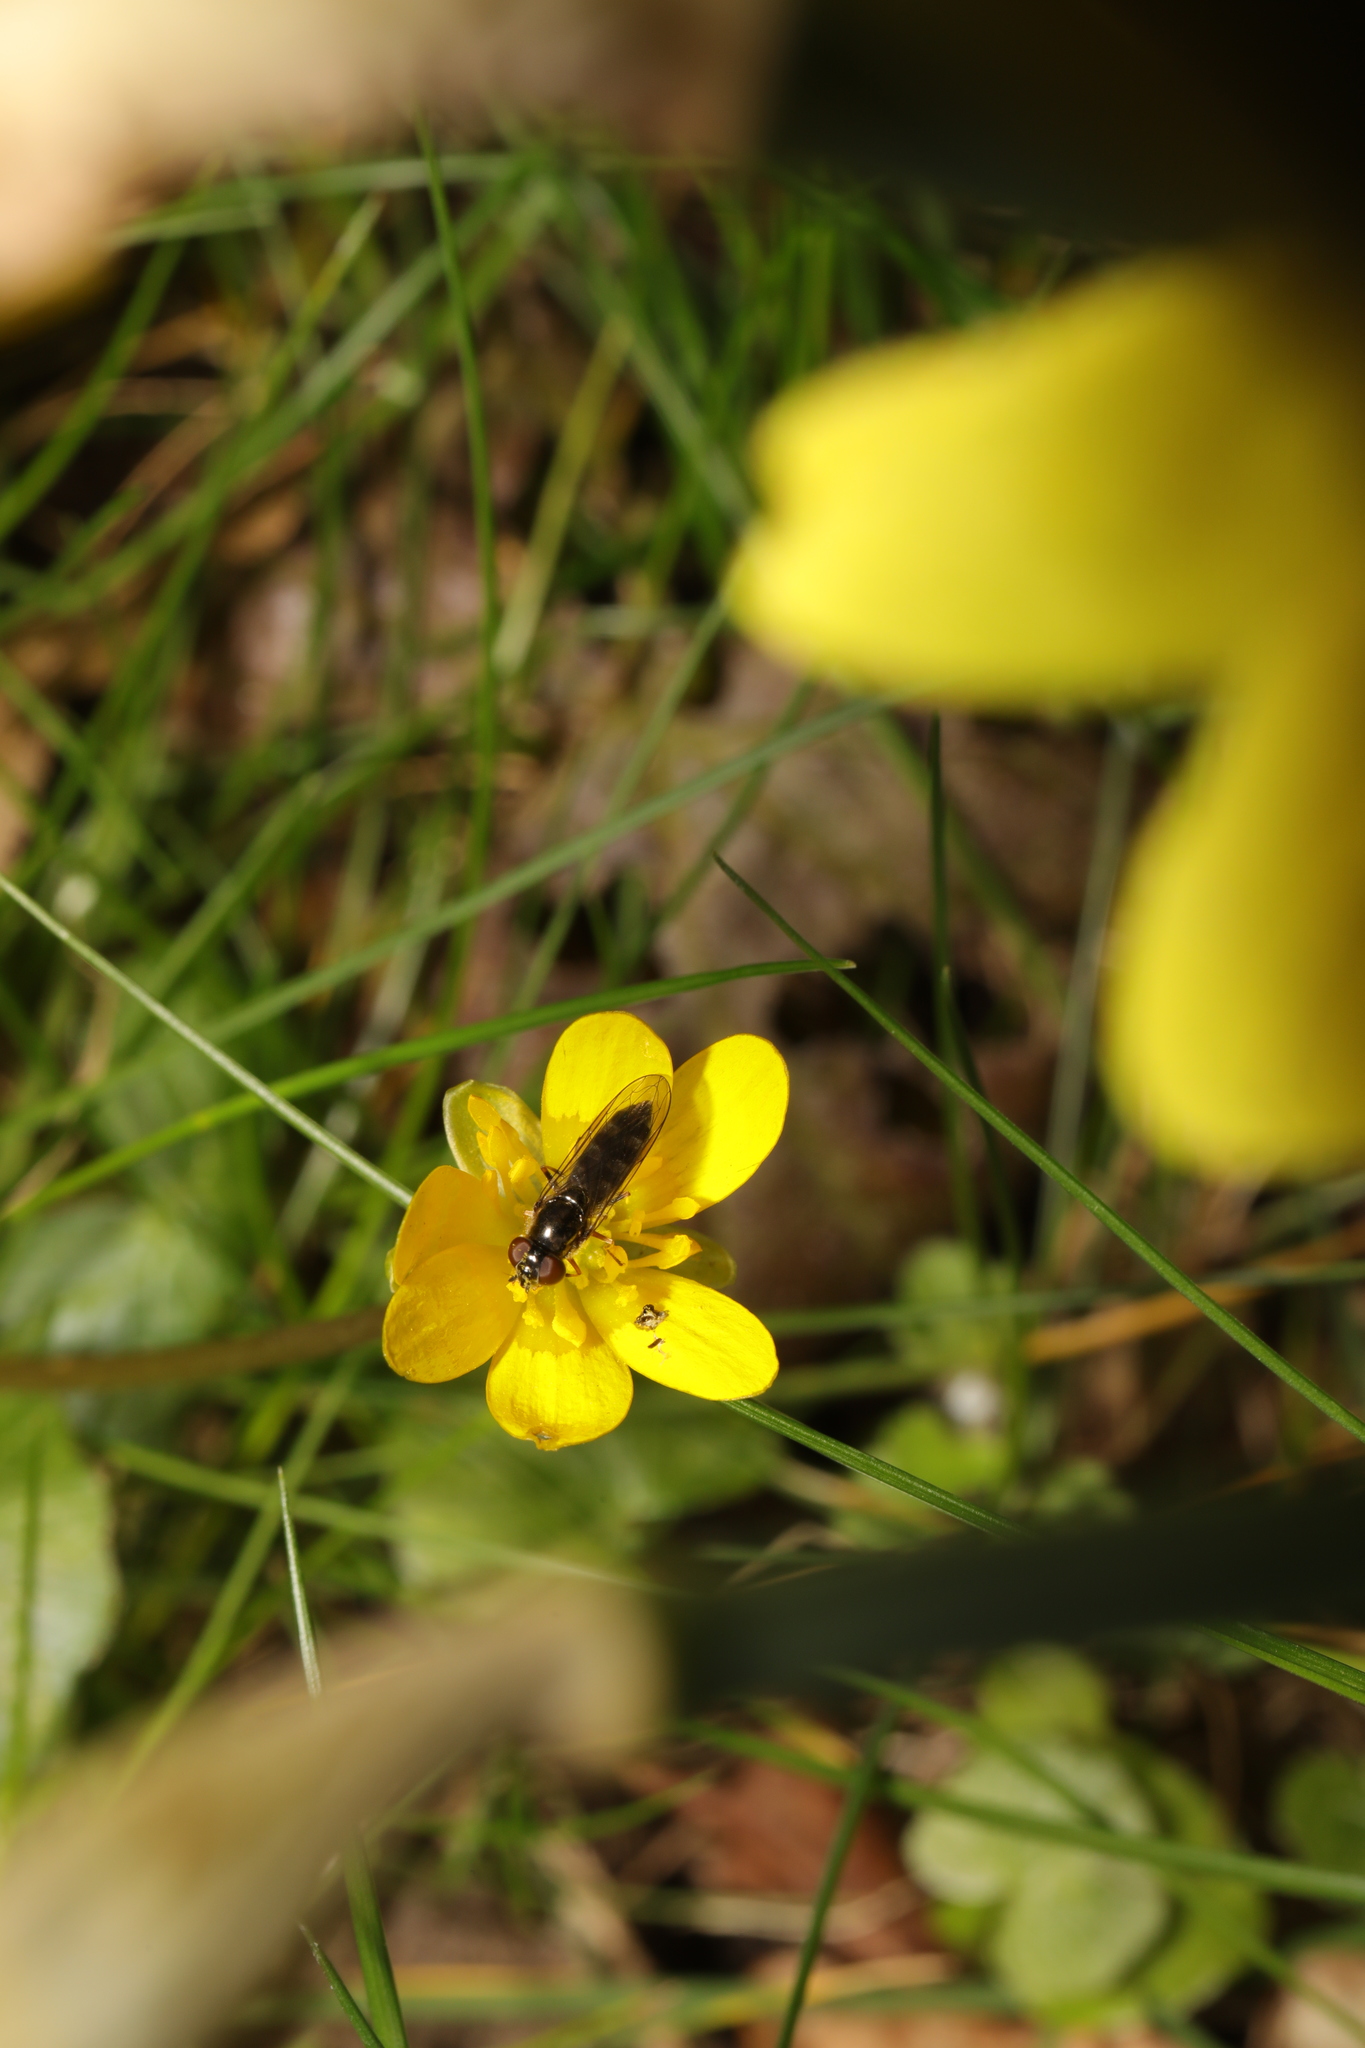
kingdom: Animalia
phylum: Arthropoda
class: Insecta
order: Diptera
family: Syrphidae
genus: Platycheirus
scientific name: Platycheirus albimanus
